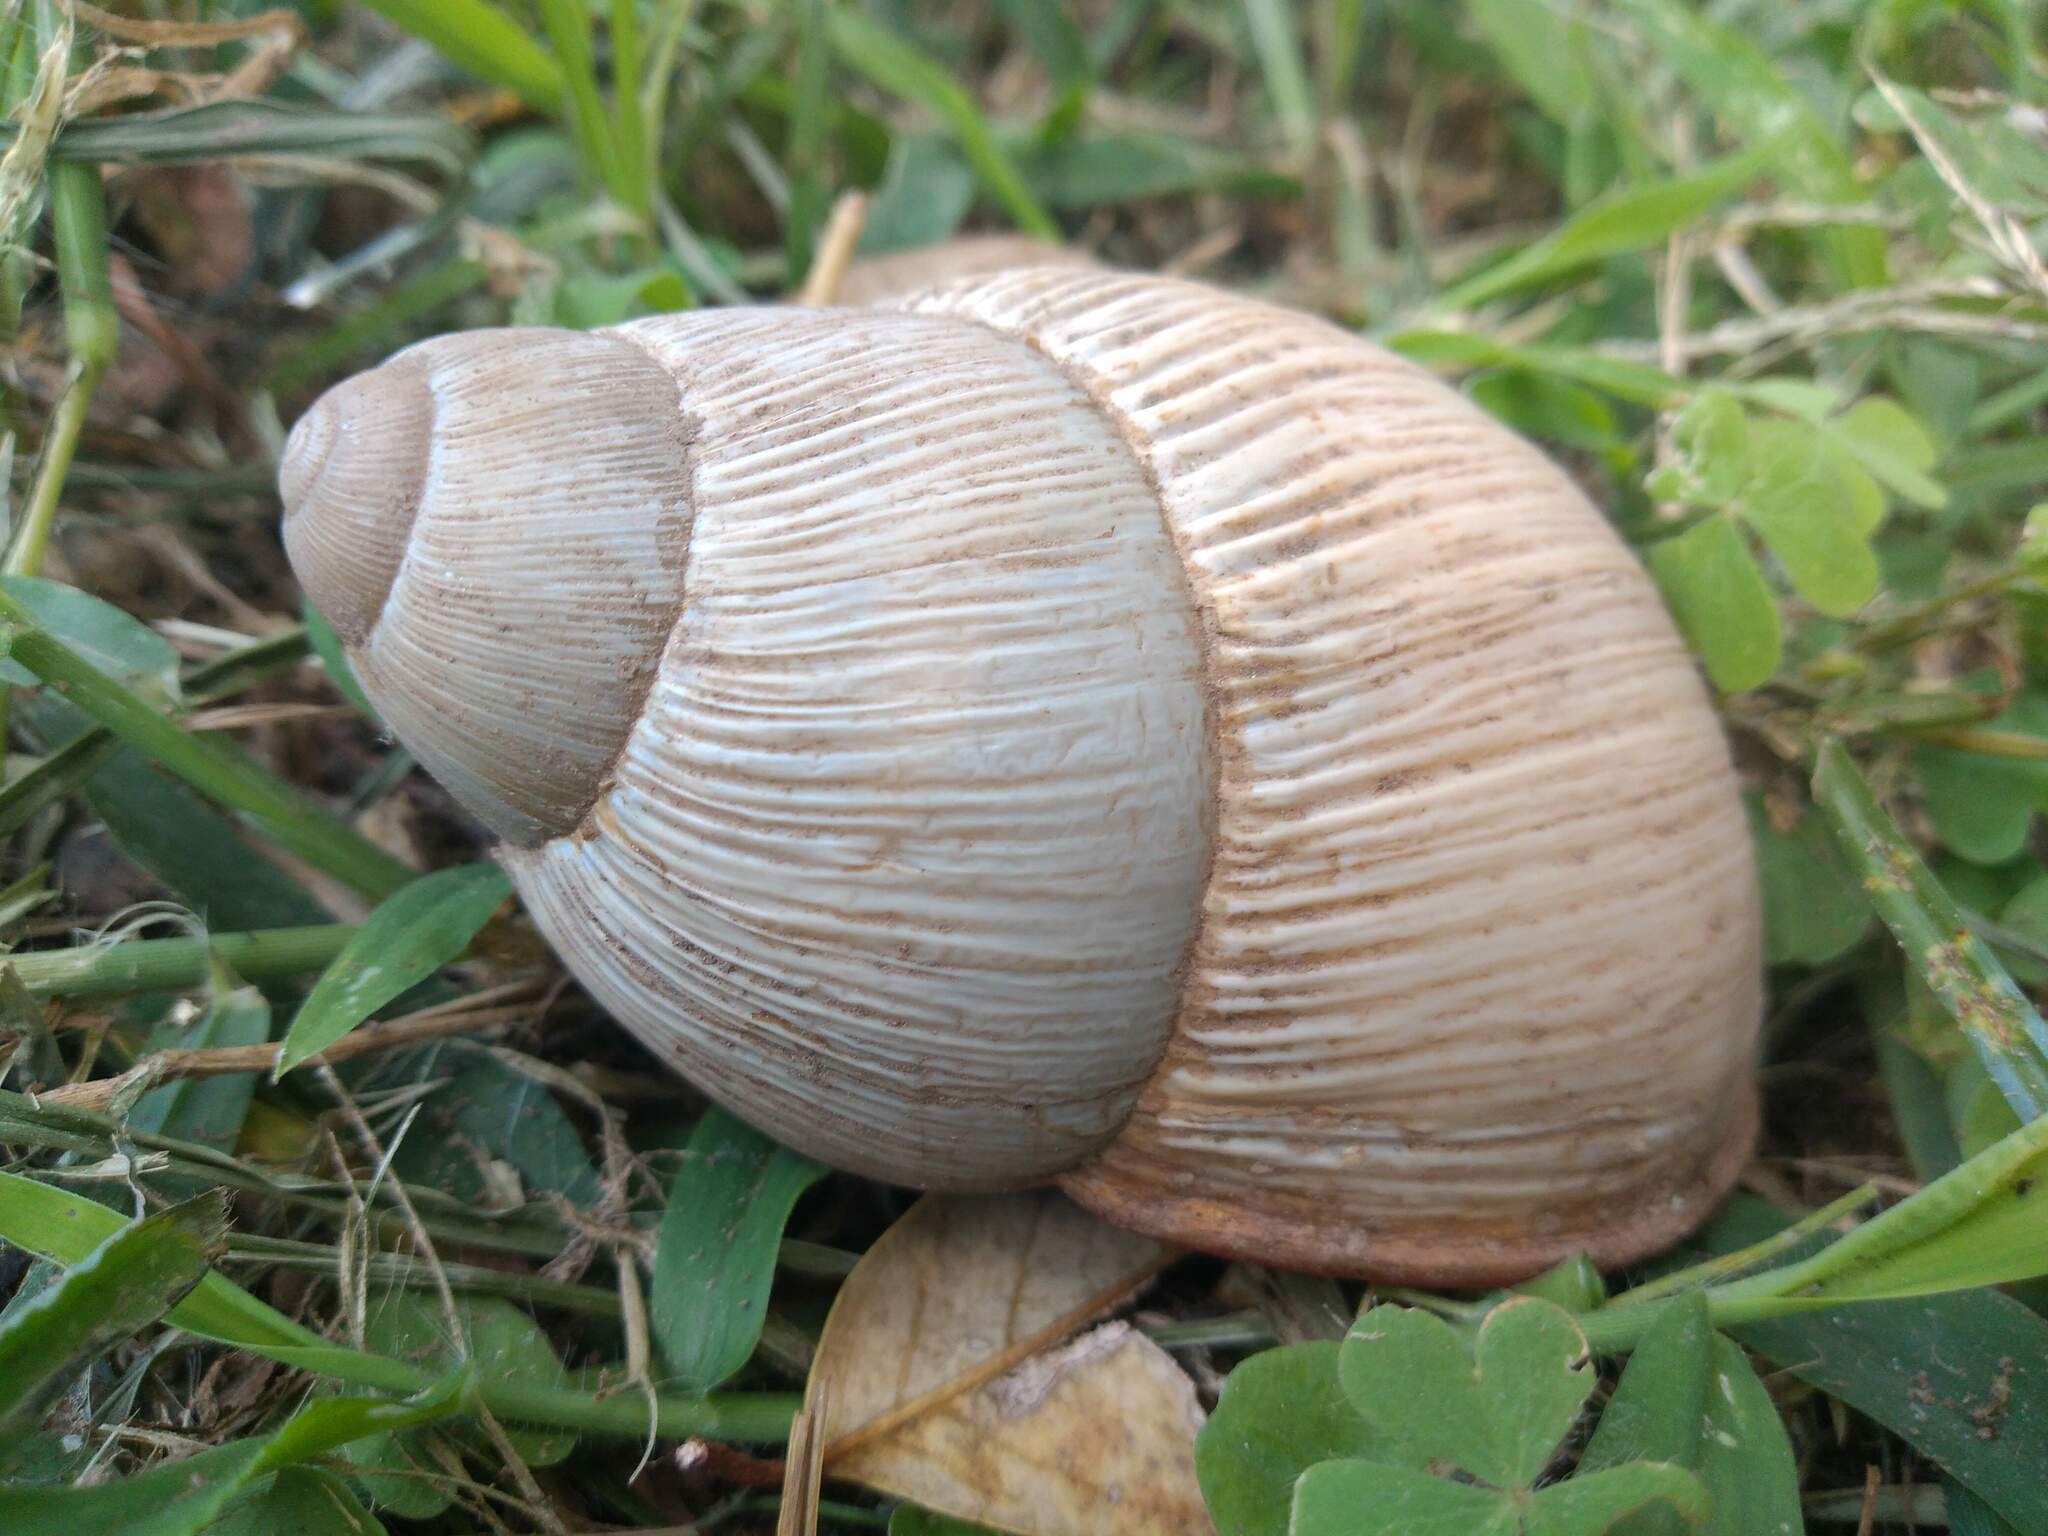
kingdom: Animalia
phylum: Mollusca
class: Gastropoda
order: Stylommatophora
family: Strophocheilidae
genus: Megalobulimus
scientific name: Megalobulimus
